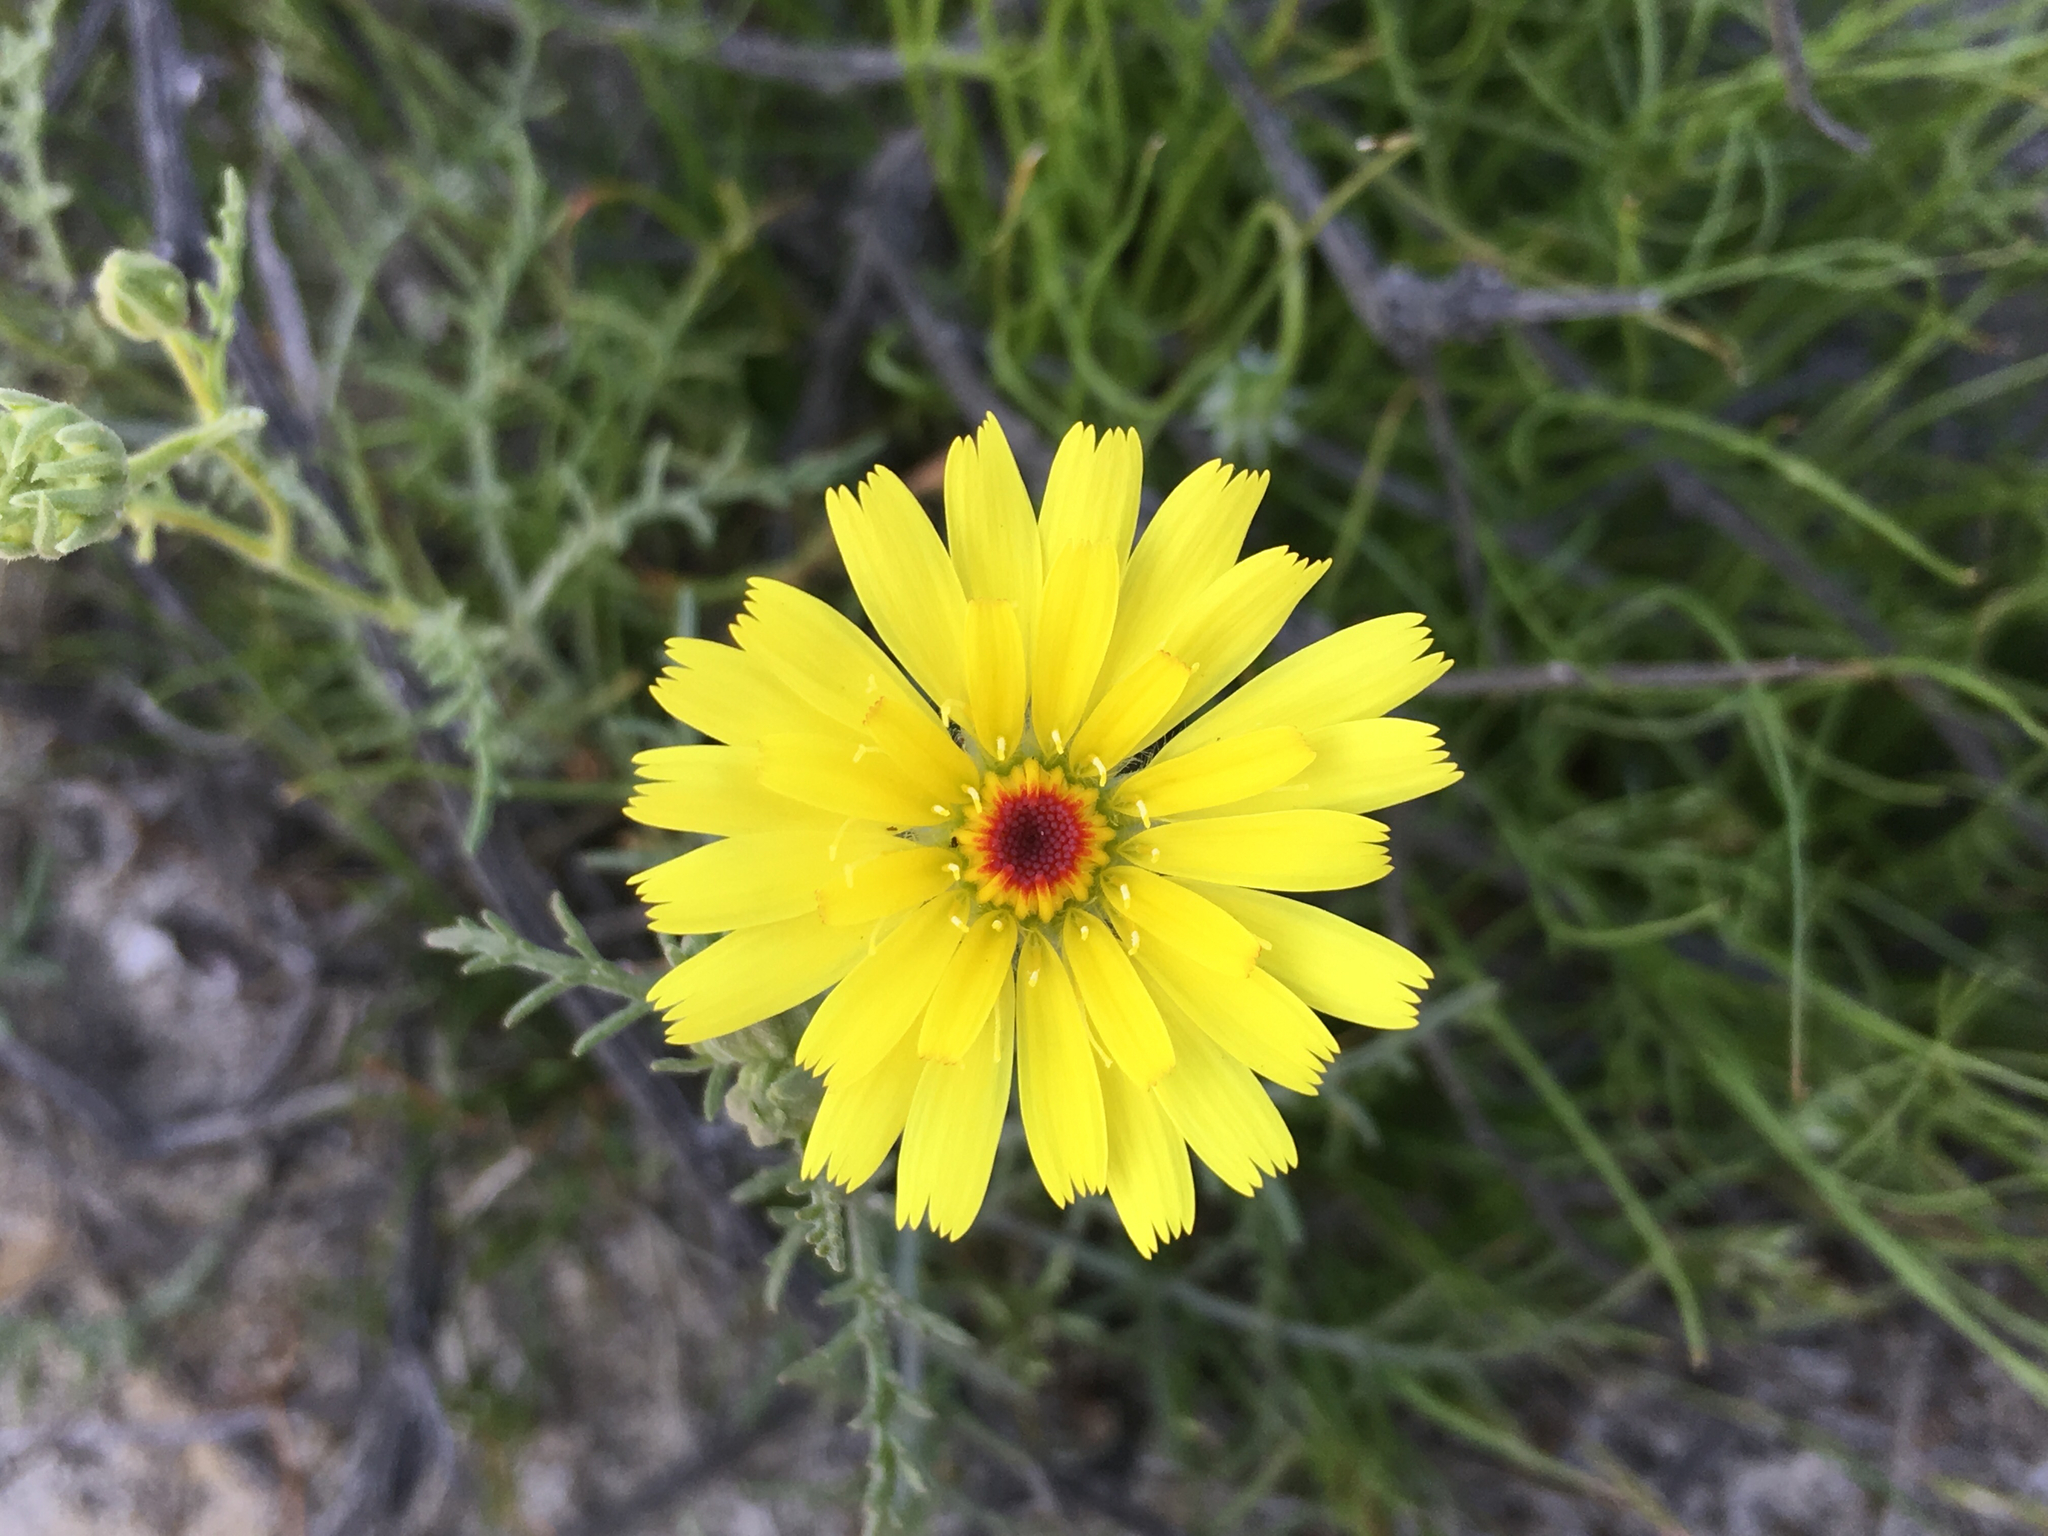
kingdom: Plantae
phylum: Tracheophyta
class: Magnoliopsida
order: Asterales
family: Asteraceae
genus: Malacothrix
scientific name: Malacothrix glabrata
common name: Smooth desert-dandelion
